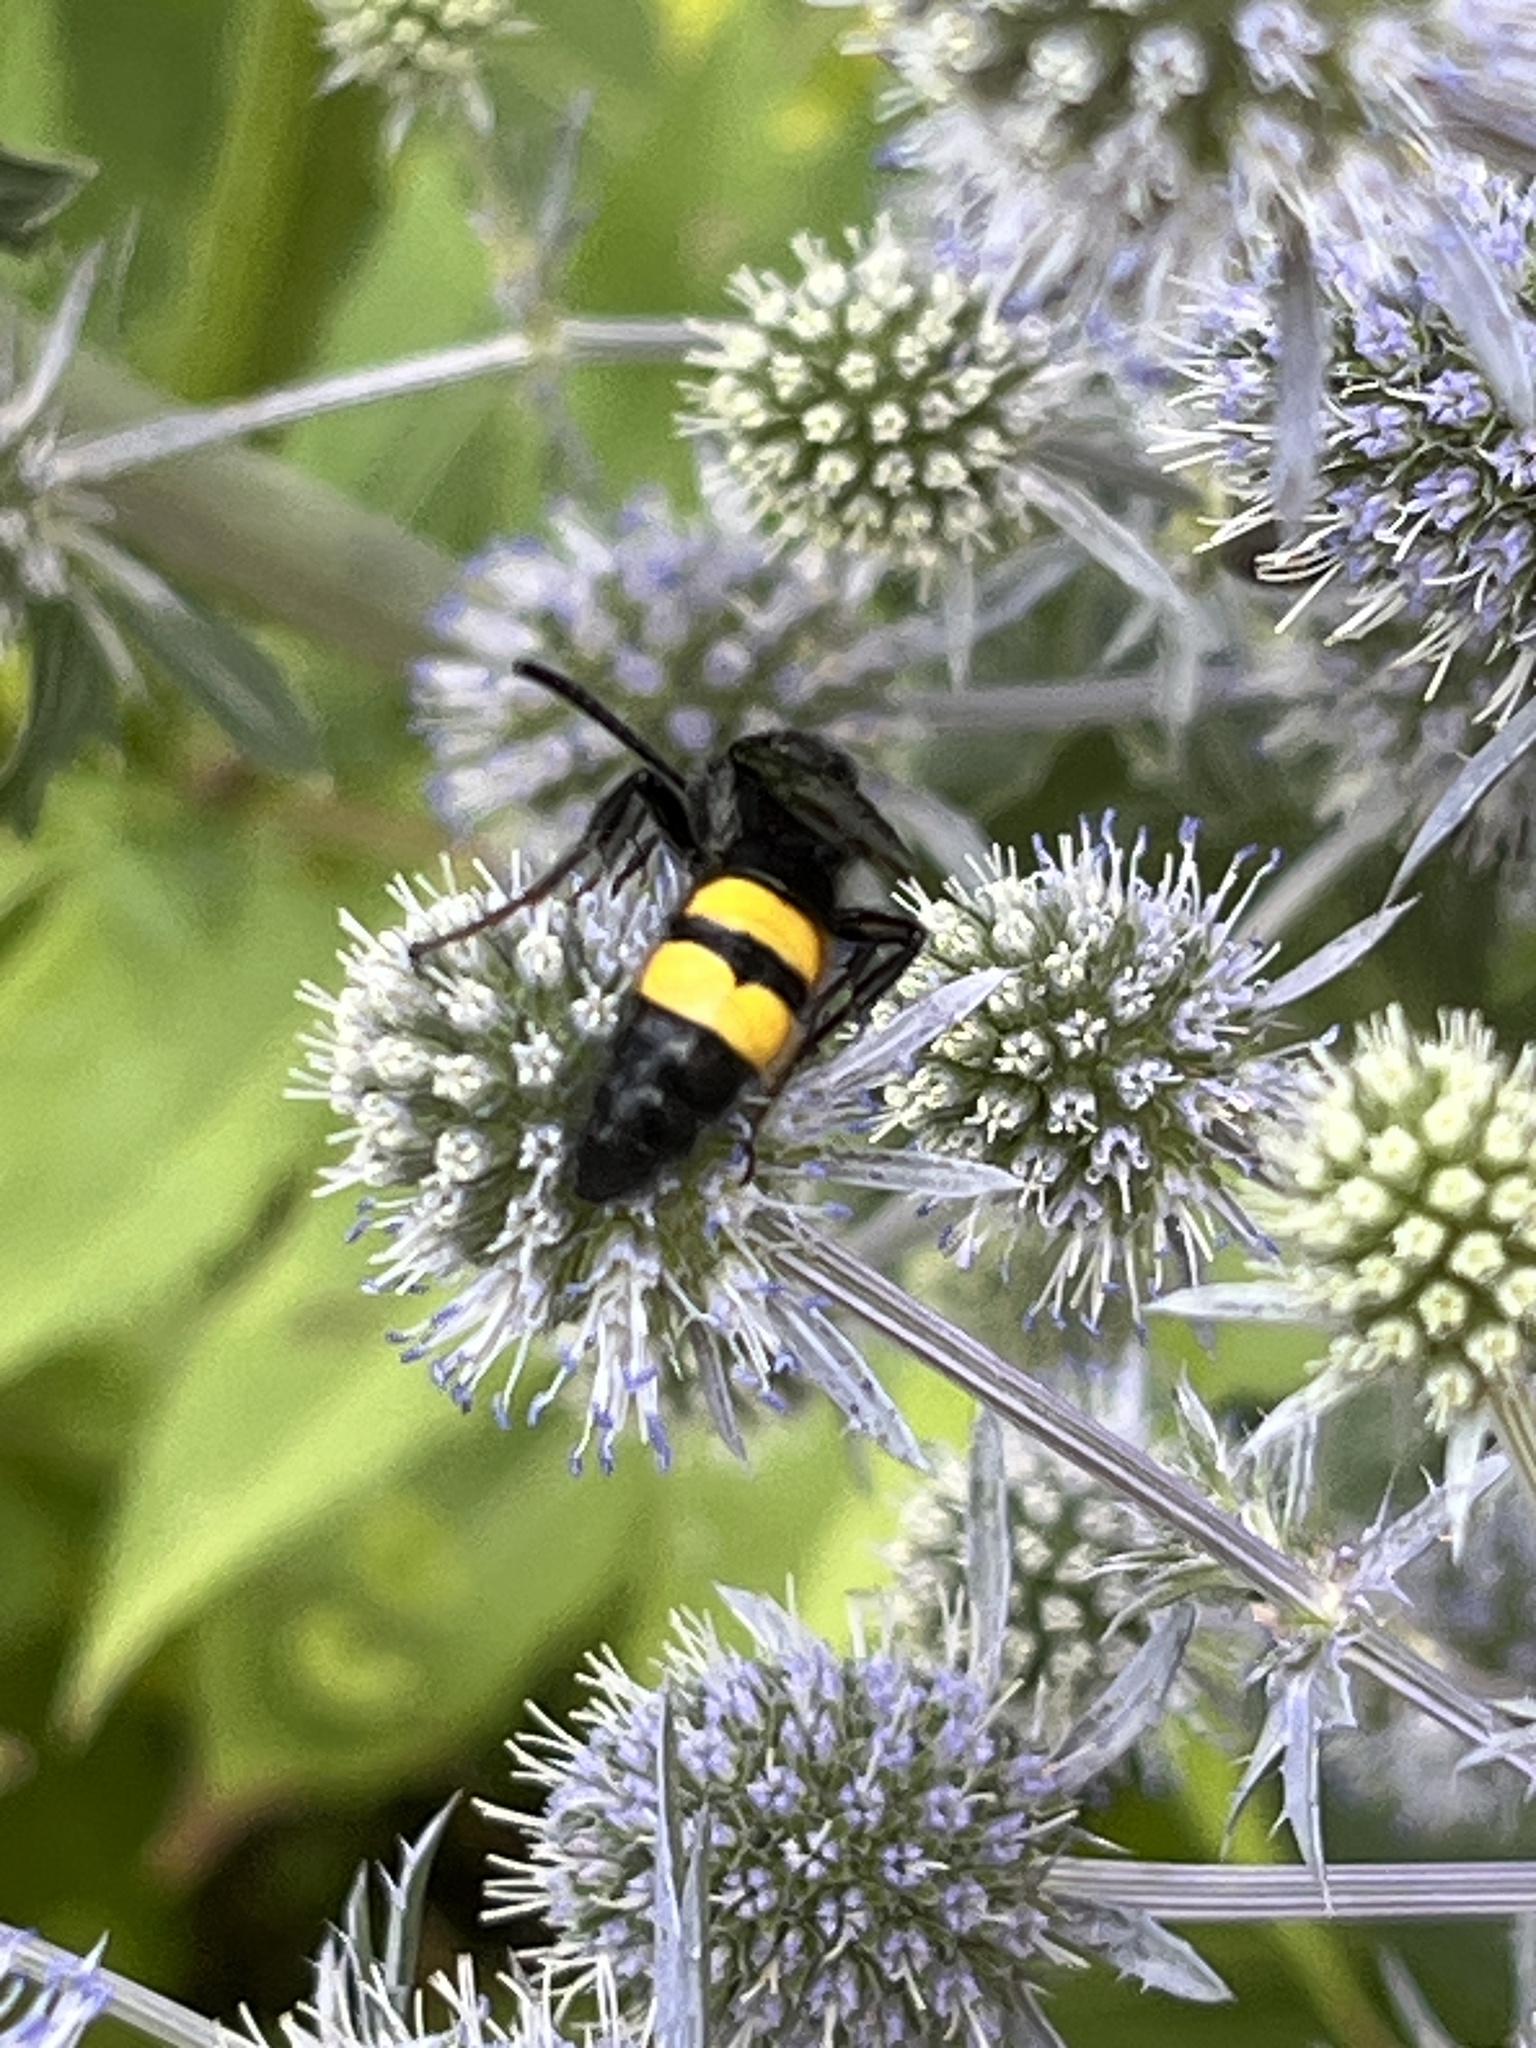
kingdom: Animalia
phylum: Arthropoda
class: Insecta
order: Hymenoptera
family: Scoliidae
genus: Scolia
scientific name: Scolia hirta
